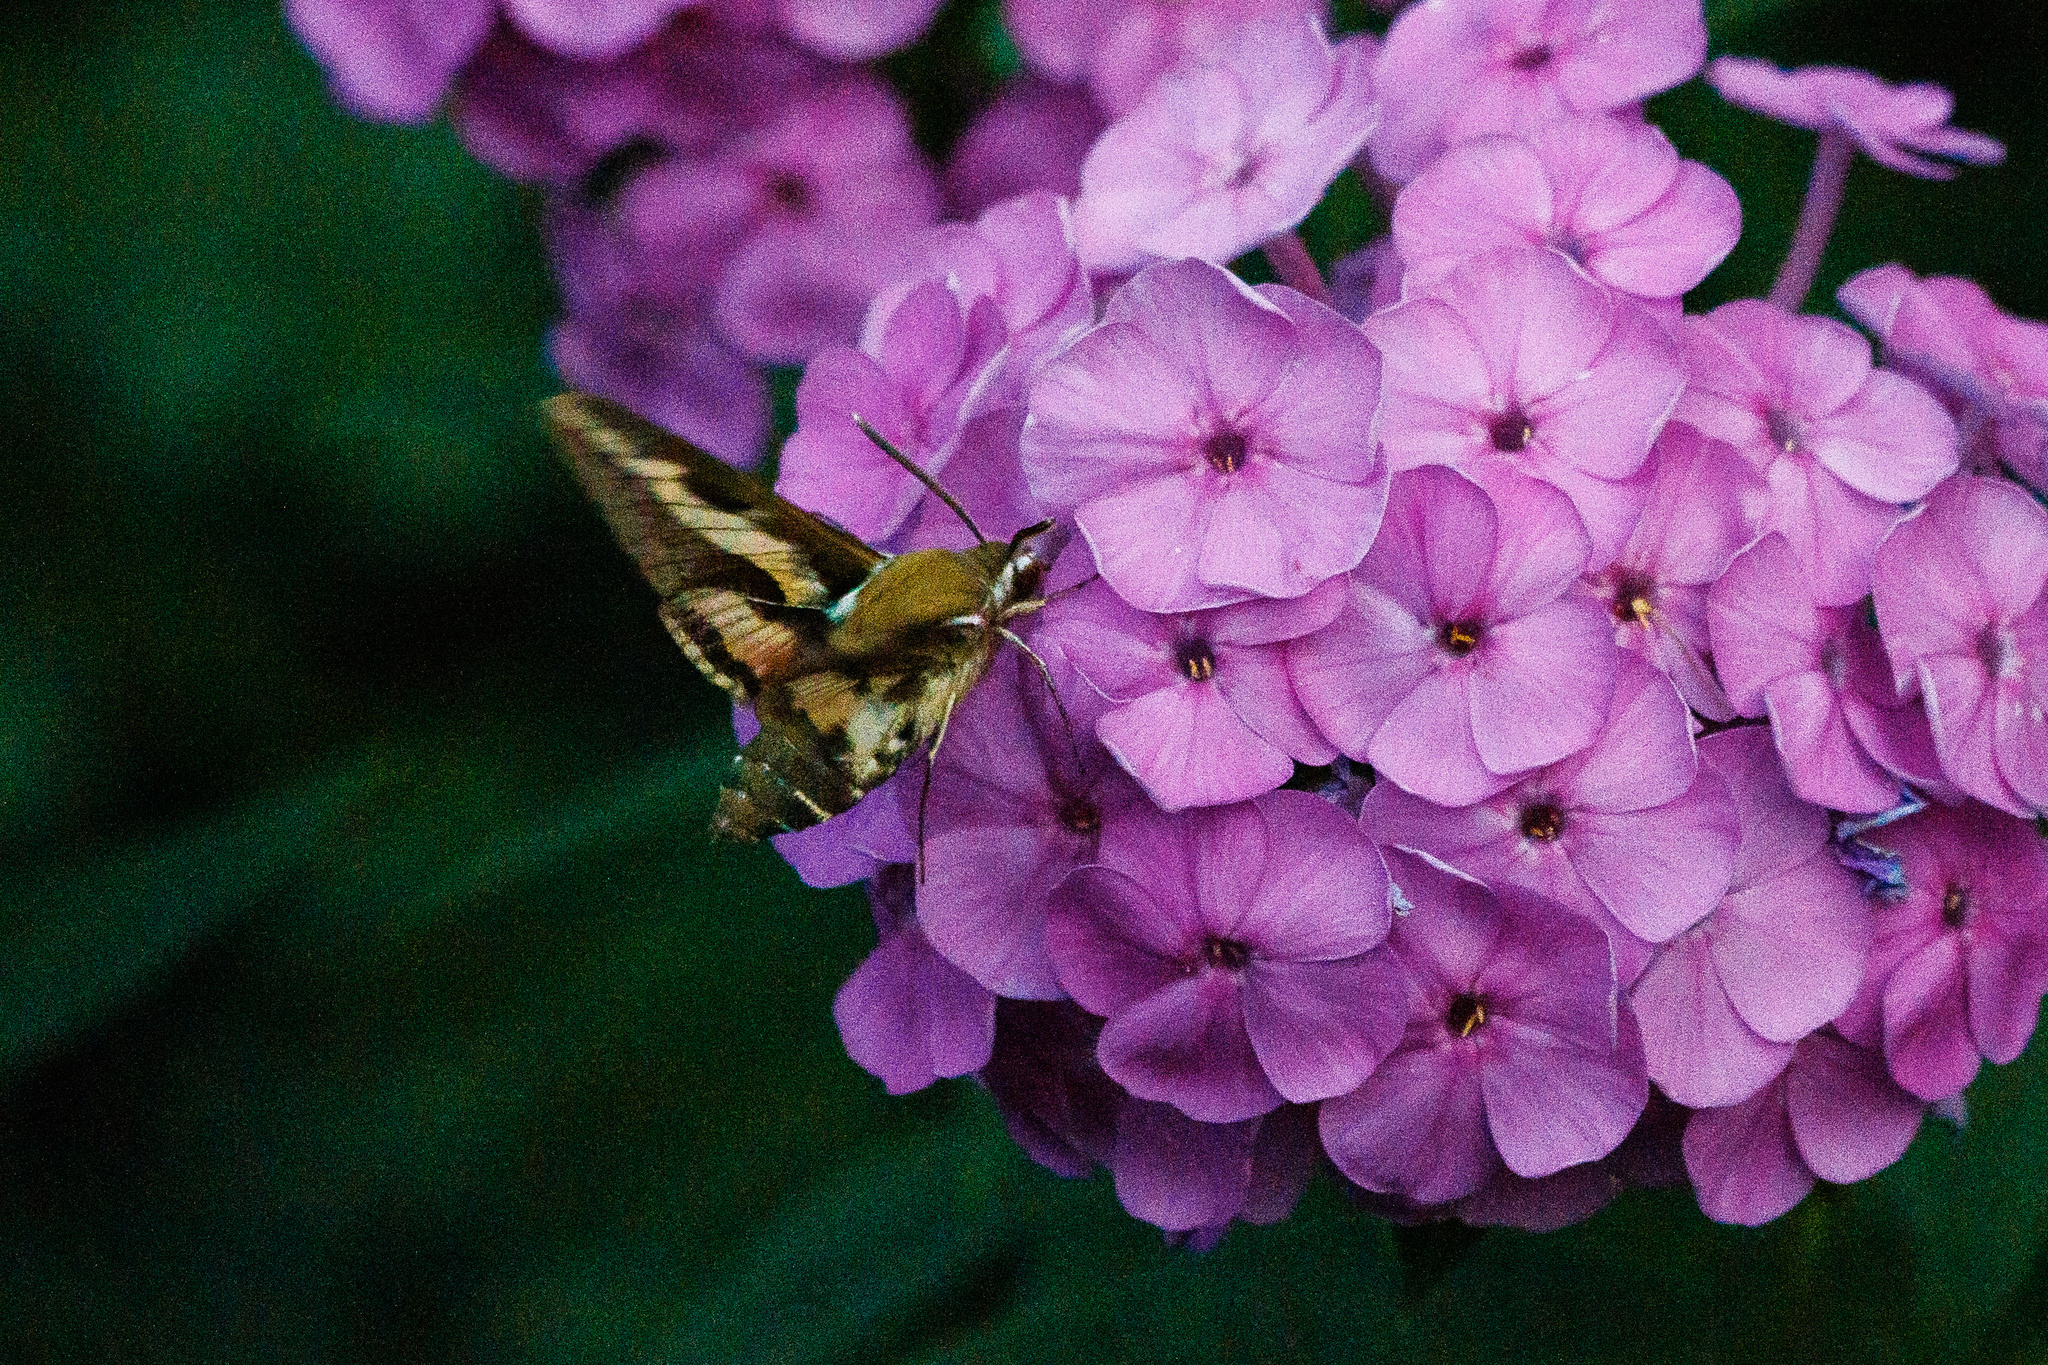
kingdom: Animalia
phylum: Arthropoda
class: Insecta
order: Lepidoptera
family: Sphingidae
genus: Hyles
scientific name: Hyles gallii
